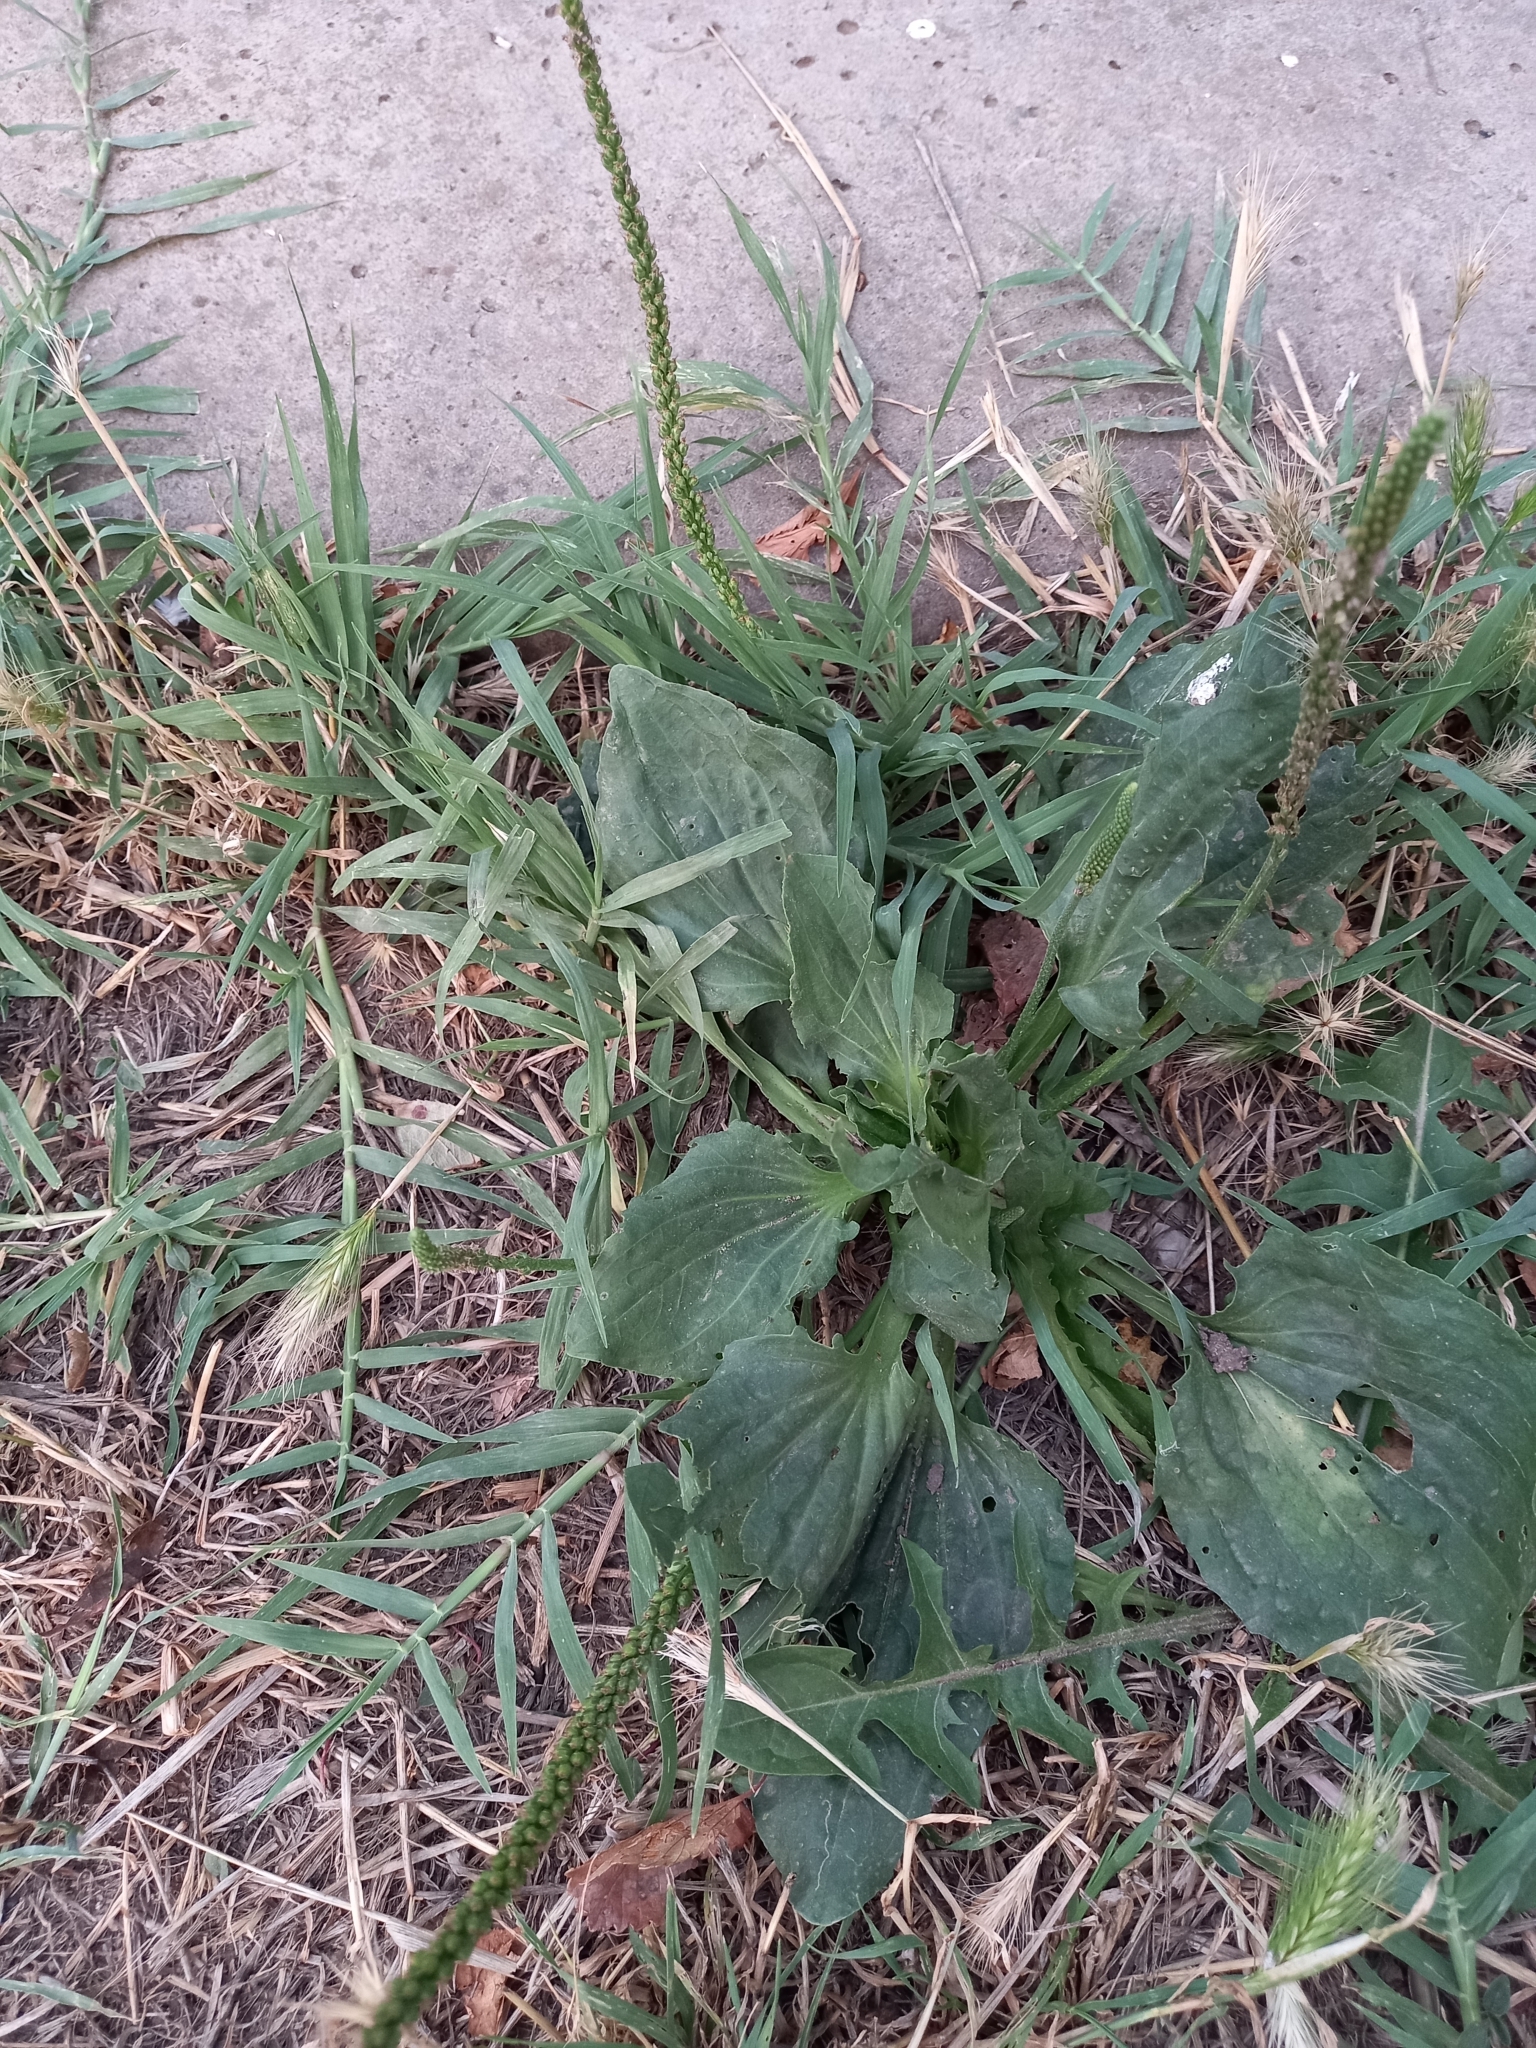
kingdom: Plantae
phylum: Tracheophyta
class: Magnoliopsida
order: Lamiales
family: Plantaginaceae
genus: Plantago
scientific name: Plantago major
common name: Common plantain
